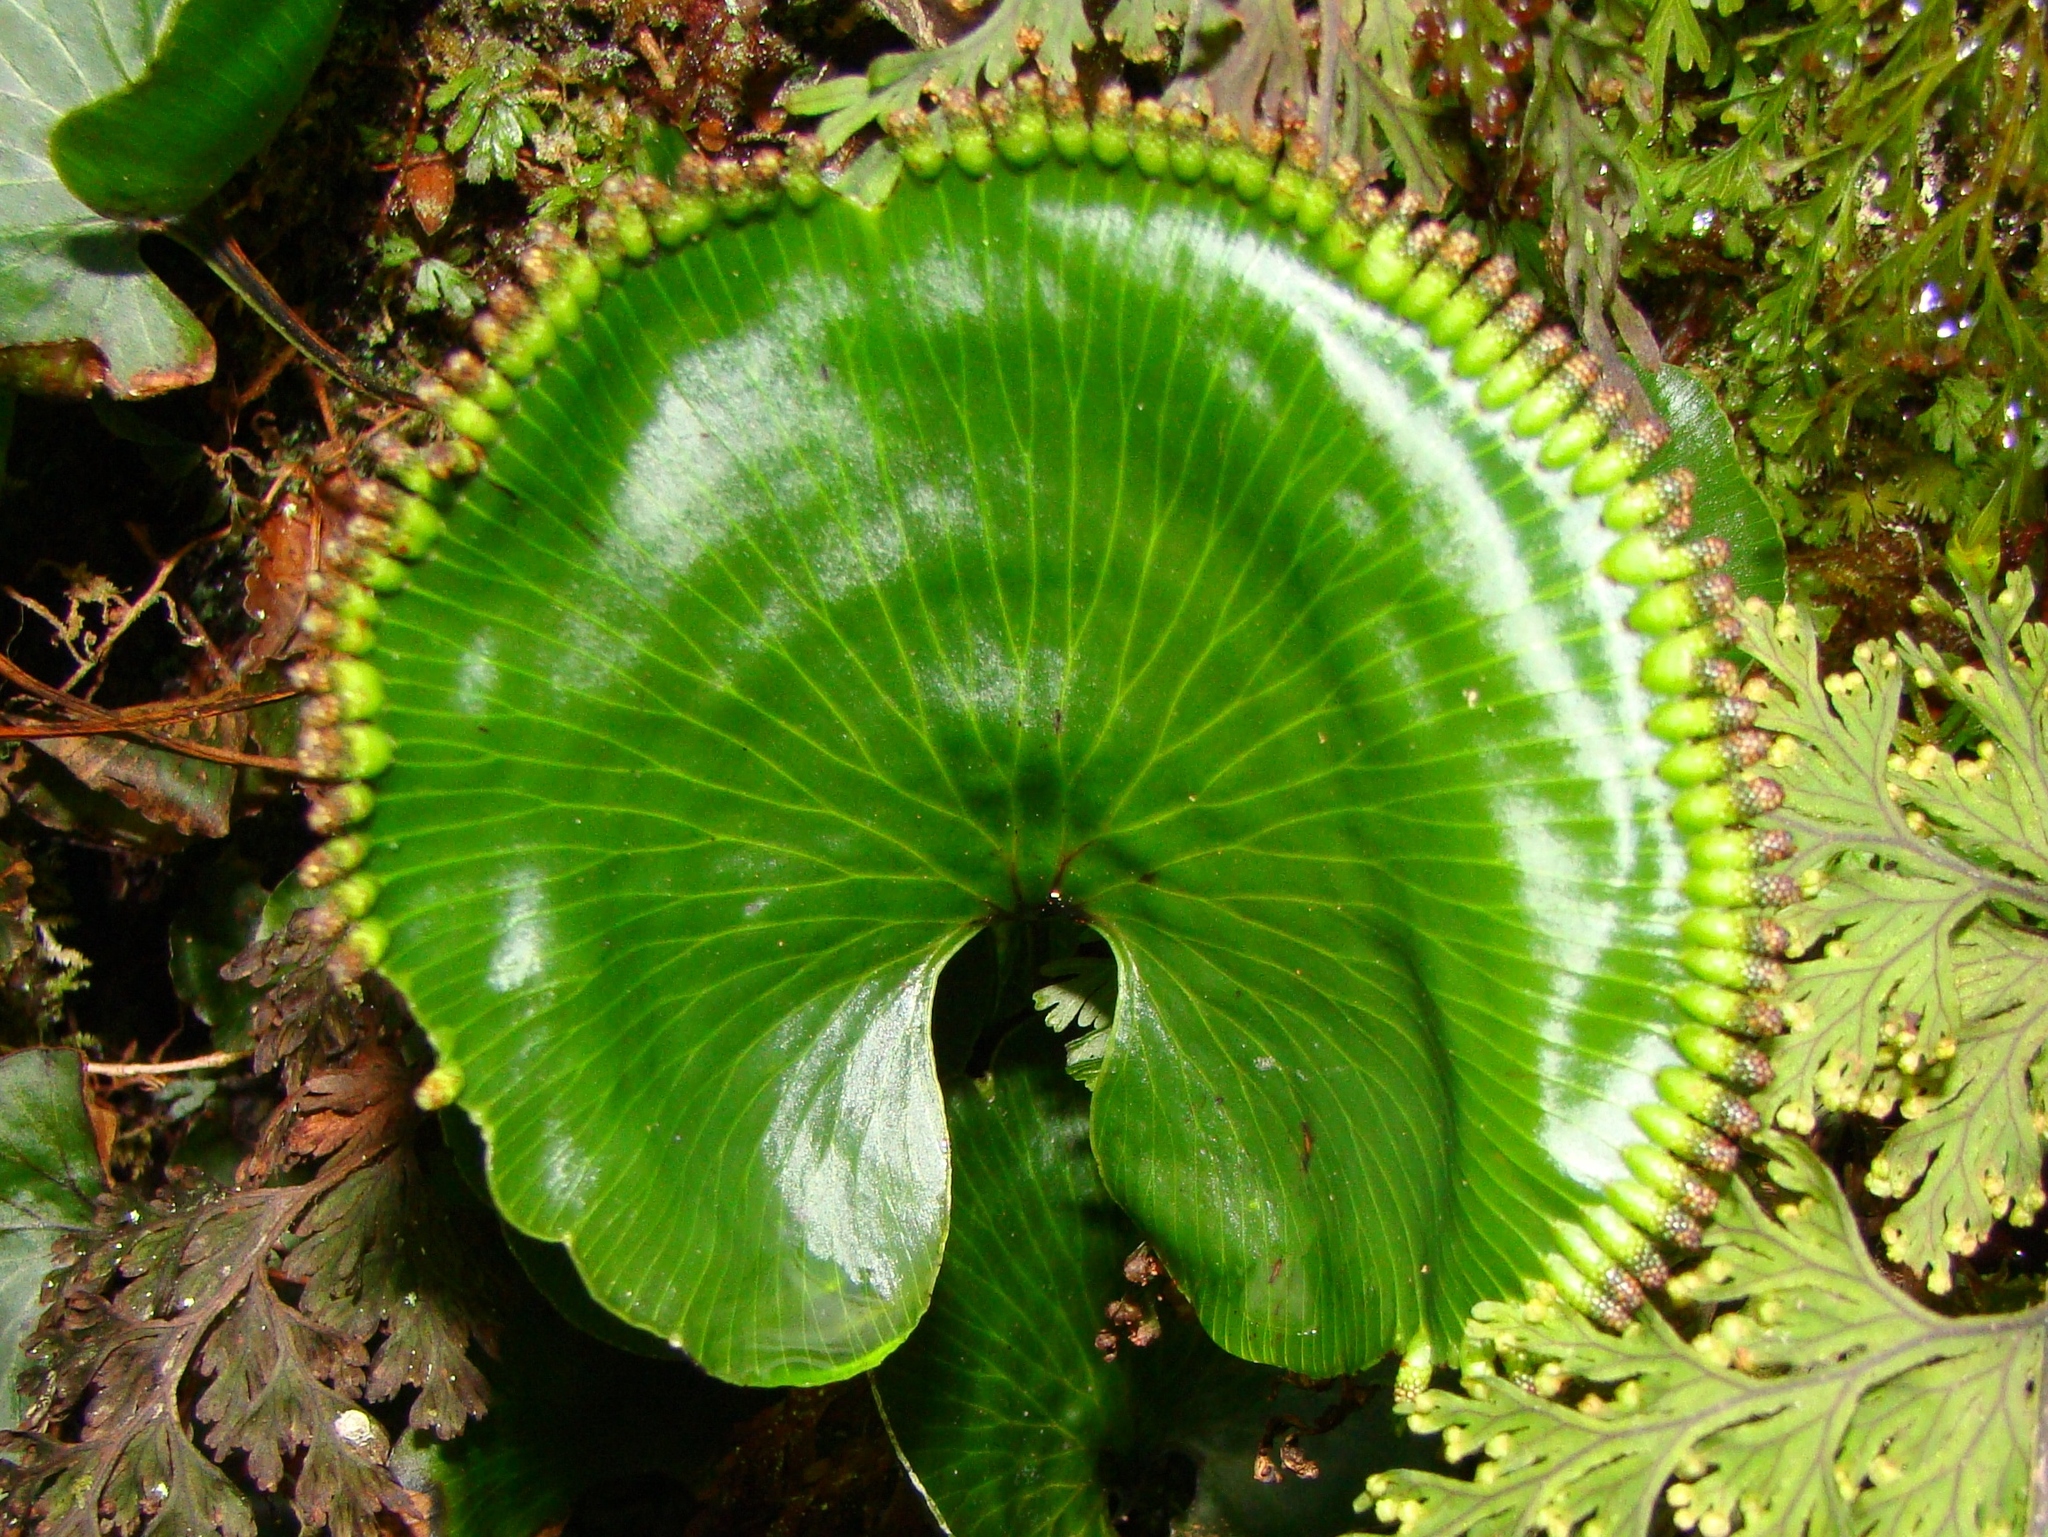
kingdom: Plantae
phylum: Tracheophyta
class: Polypodiopsida
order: Hymenophyllales
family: Hymenophyllaceae
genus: Hymenophyllum
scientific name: Hymenophyllum nephrophyllum
